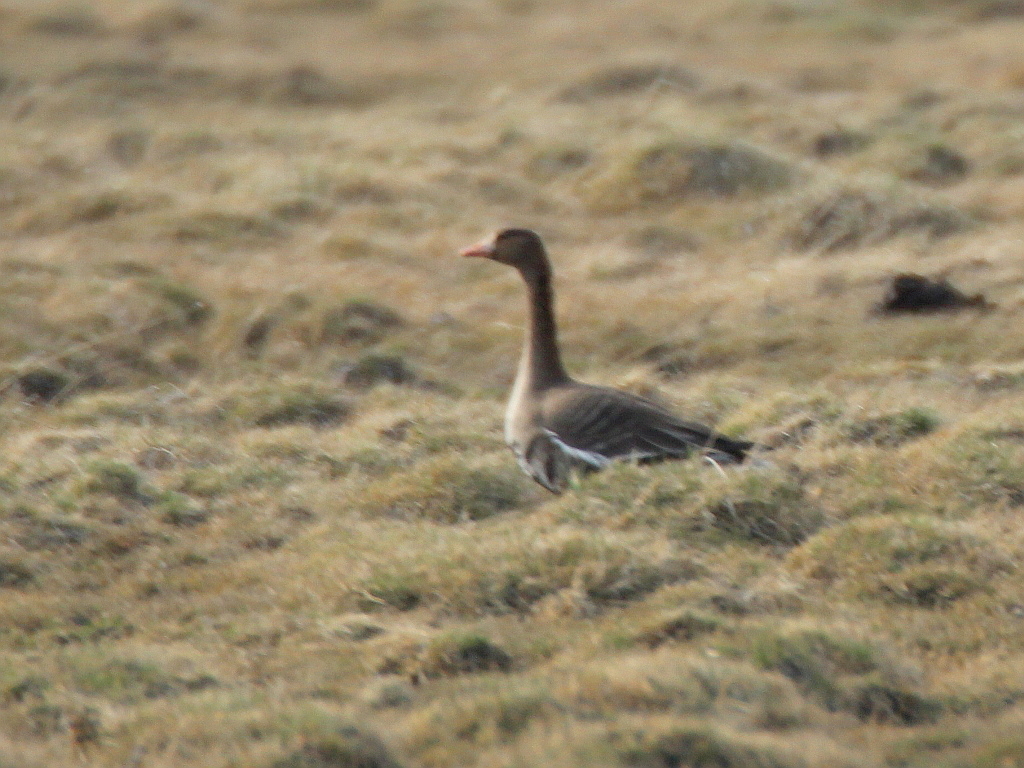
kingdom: Animalia
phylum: Chordata
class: Aves
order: Anseriformes
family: Anatidae
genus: Anser
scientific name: Anser albifrons
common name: Greater white-fronted goose
